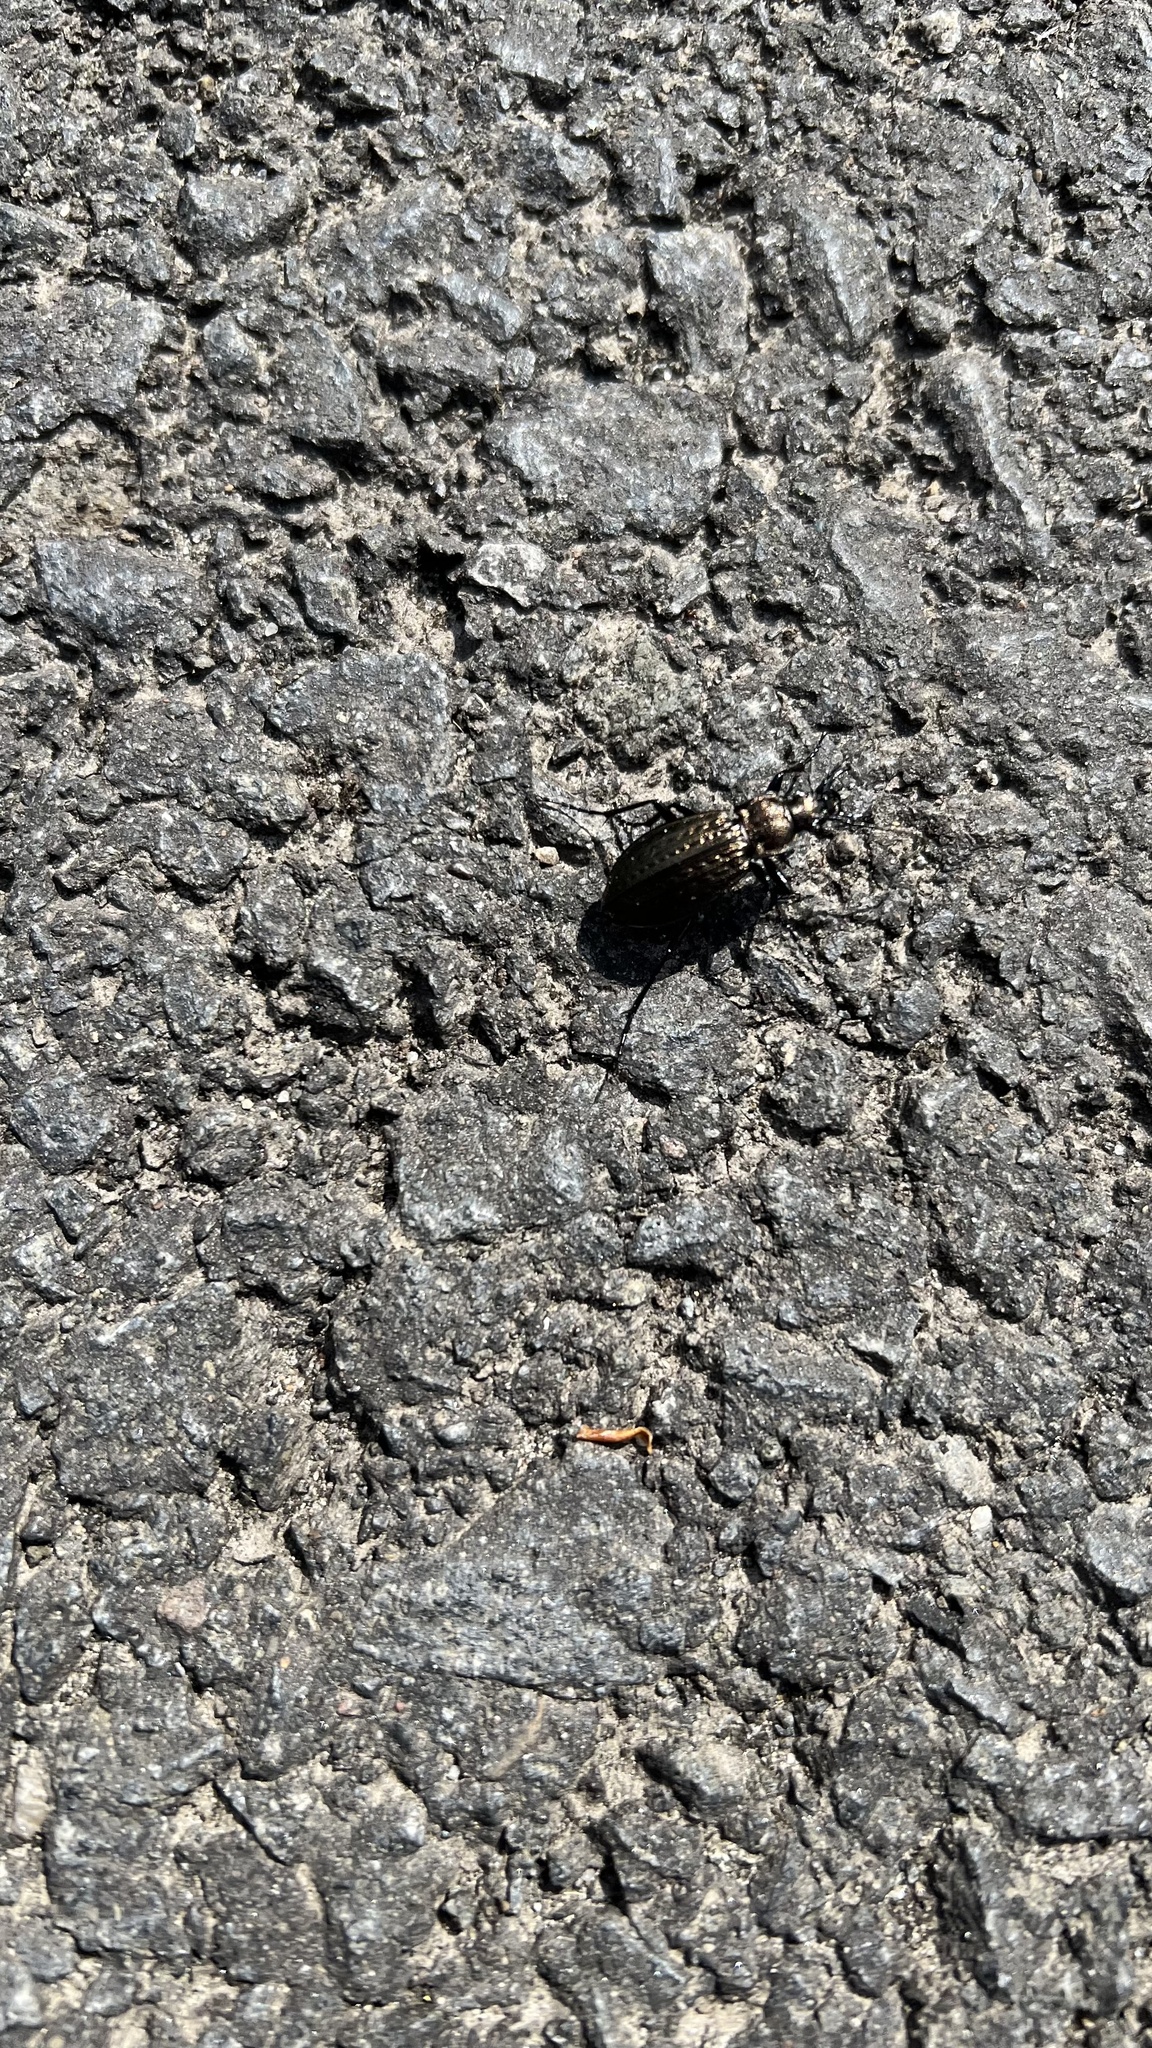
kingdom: Animalia
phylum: Arthropoda
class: Insecta
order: Coleoptera
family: Carabidae
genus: Carabus
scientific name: Carabus granulatus
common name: Granulate ground beetle
